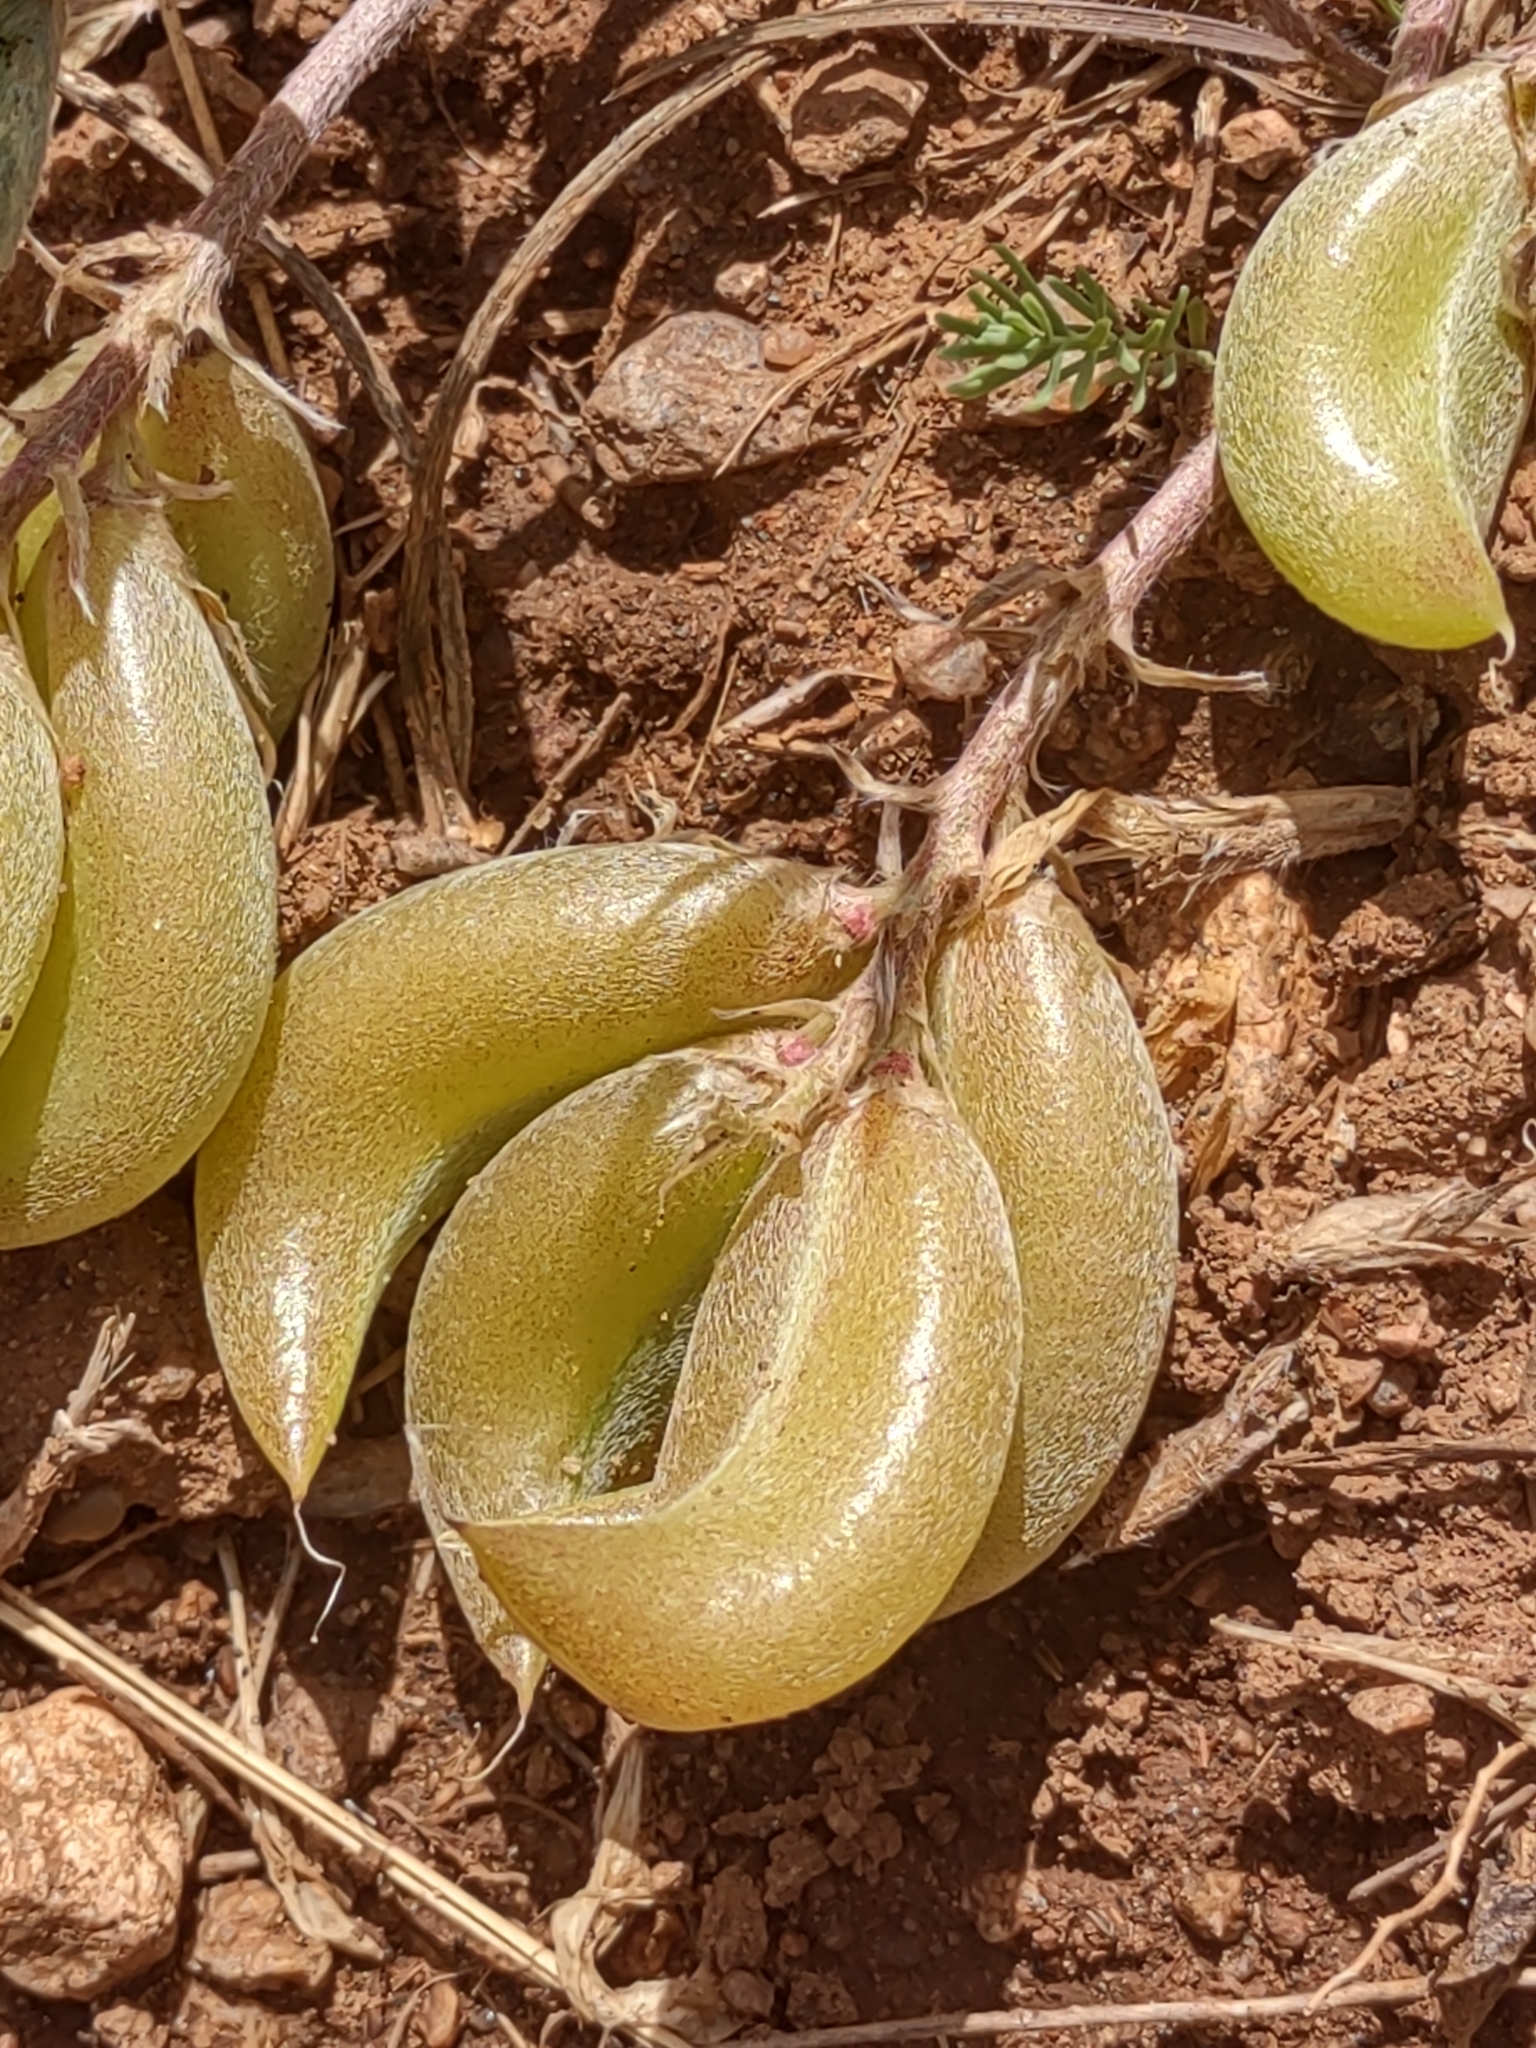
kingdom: Plantae
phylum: Tracheophyta
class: Magnoliopsida
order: Fabales
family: Fabaceae
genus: Astragalus
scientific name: Astragalus shortianus
